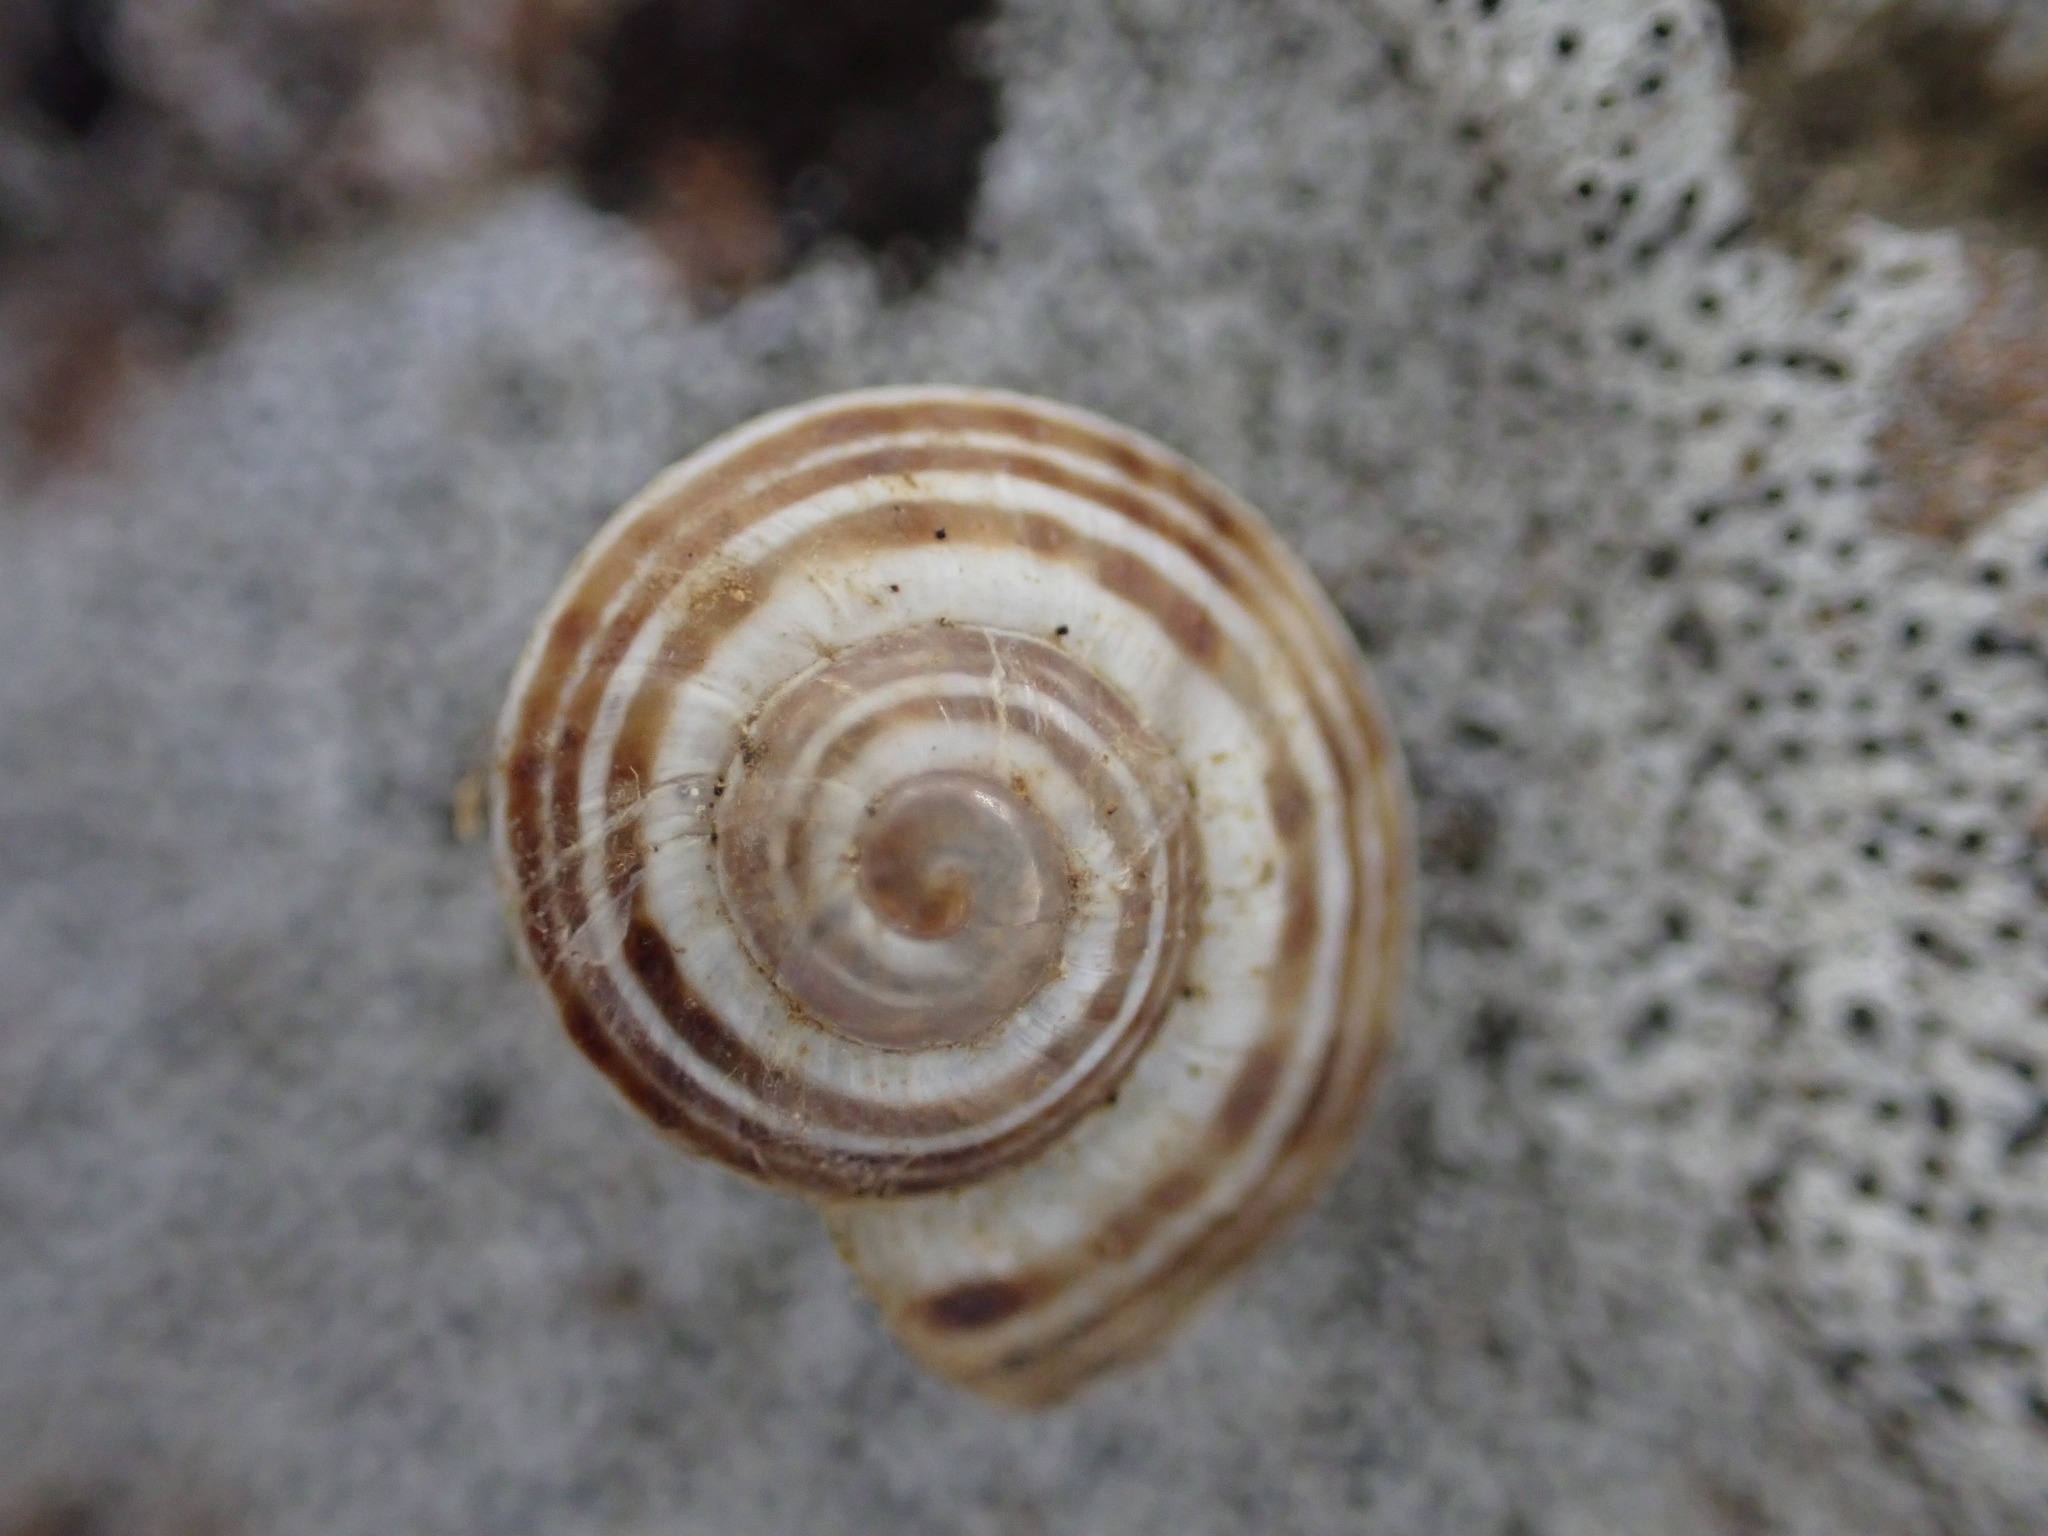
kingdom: Animalia
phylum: Mollusca
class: Gastropoda
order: Stylommatophora
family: Helicidae
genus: Pseudotachea
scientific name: Pseudotachea splendida
